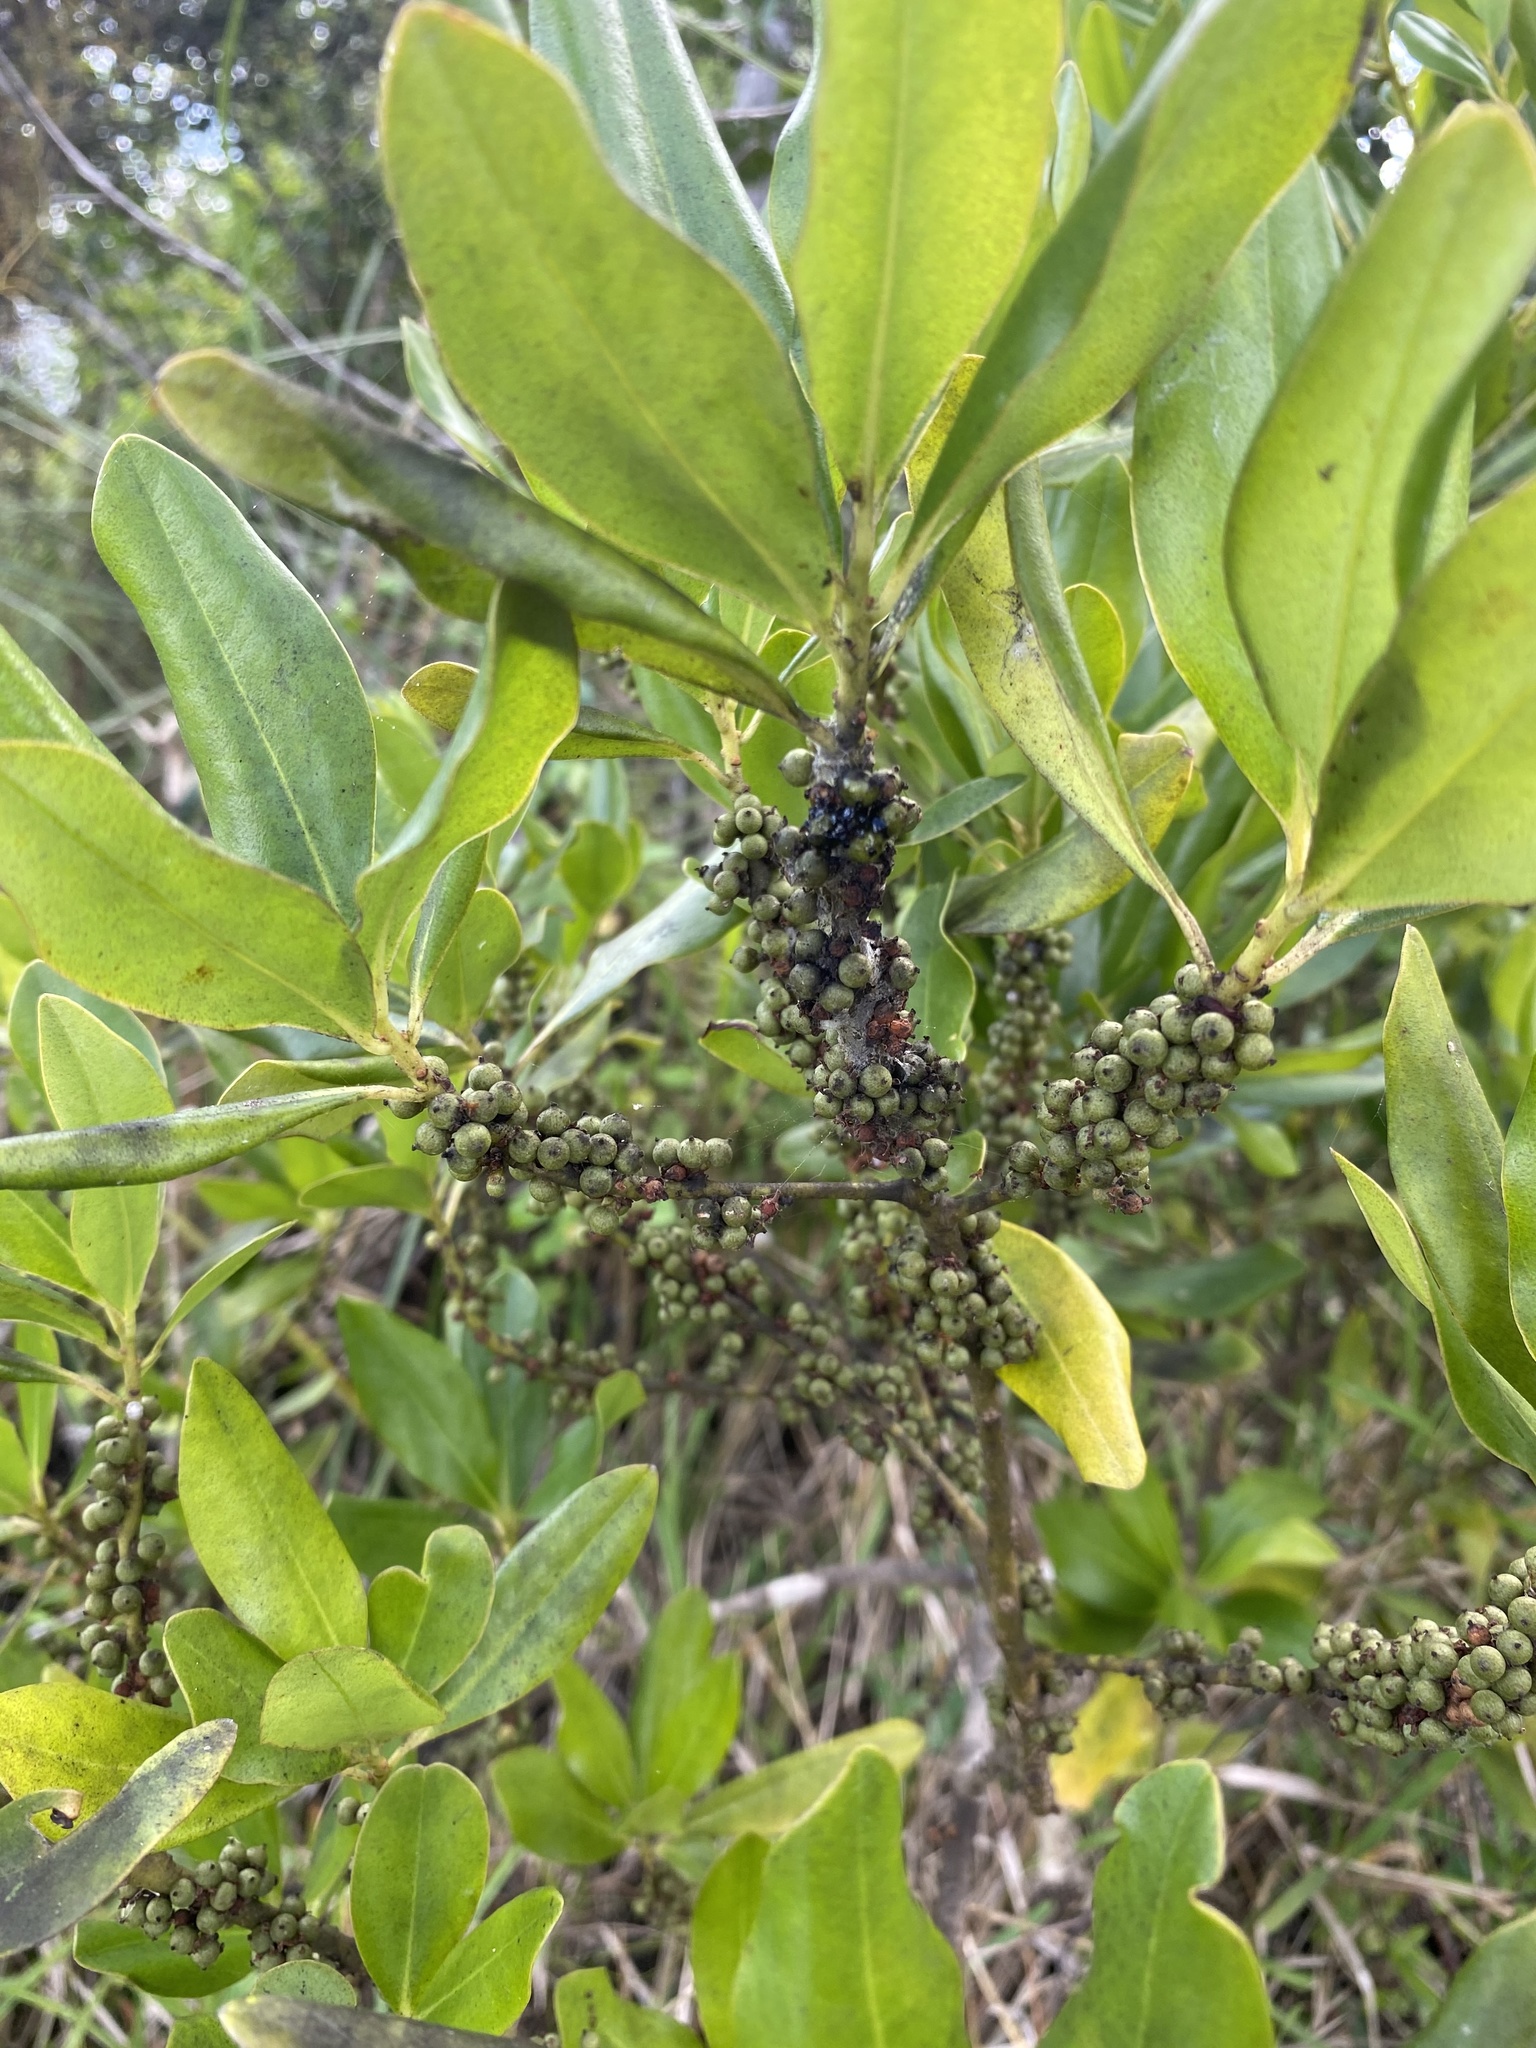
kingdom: Plantae
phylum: Tracheophyta
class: Magnoliopsida
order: Ericales
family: Primulaceae
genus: Myrsine
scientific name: Myrsine floridana
